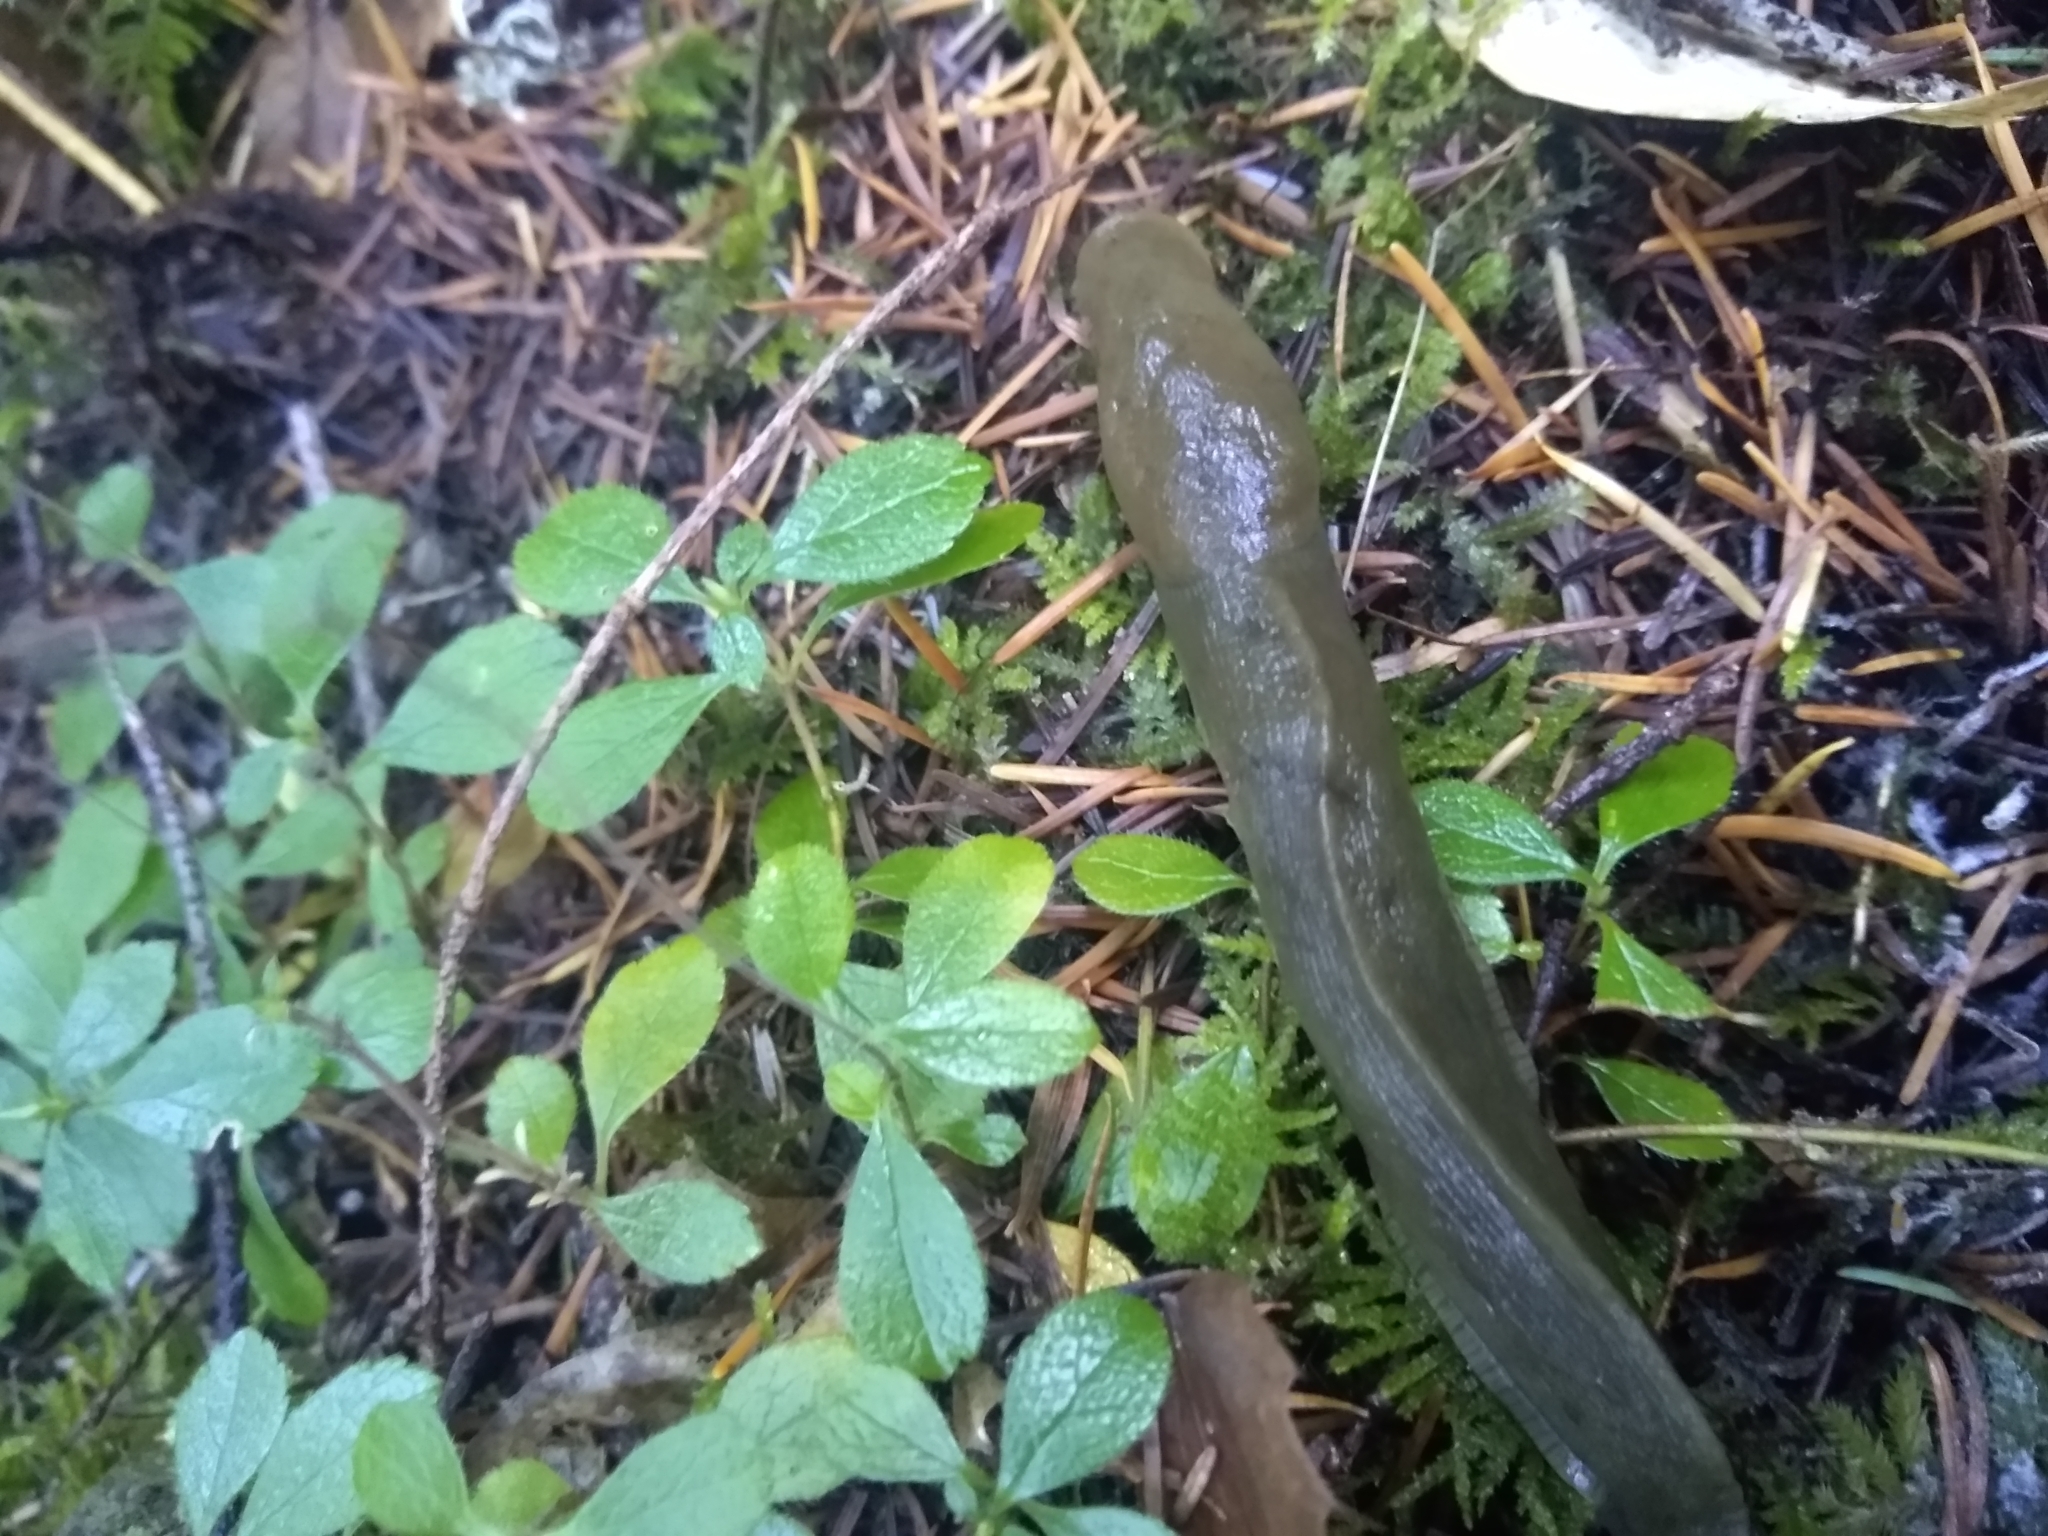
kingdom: Animalia
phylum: Mollusca
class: Gastropoda
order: Stylommatophora
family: Ariolimacidae
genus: Ariolimax
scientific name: Ariolimax columbianus
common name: Pacific banana slug
